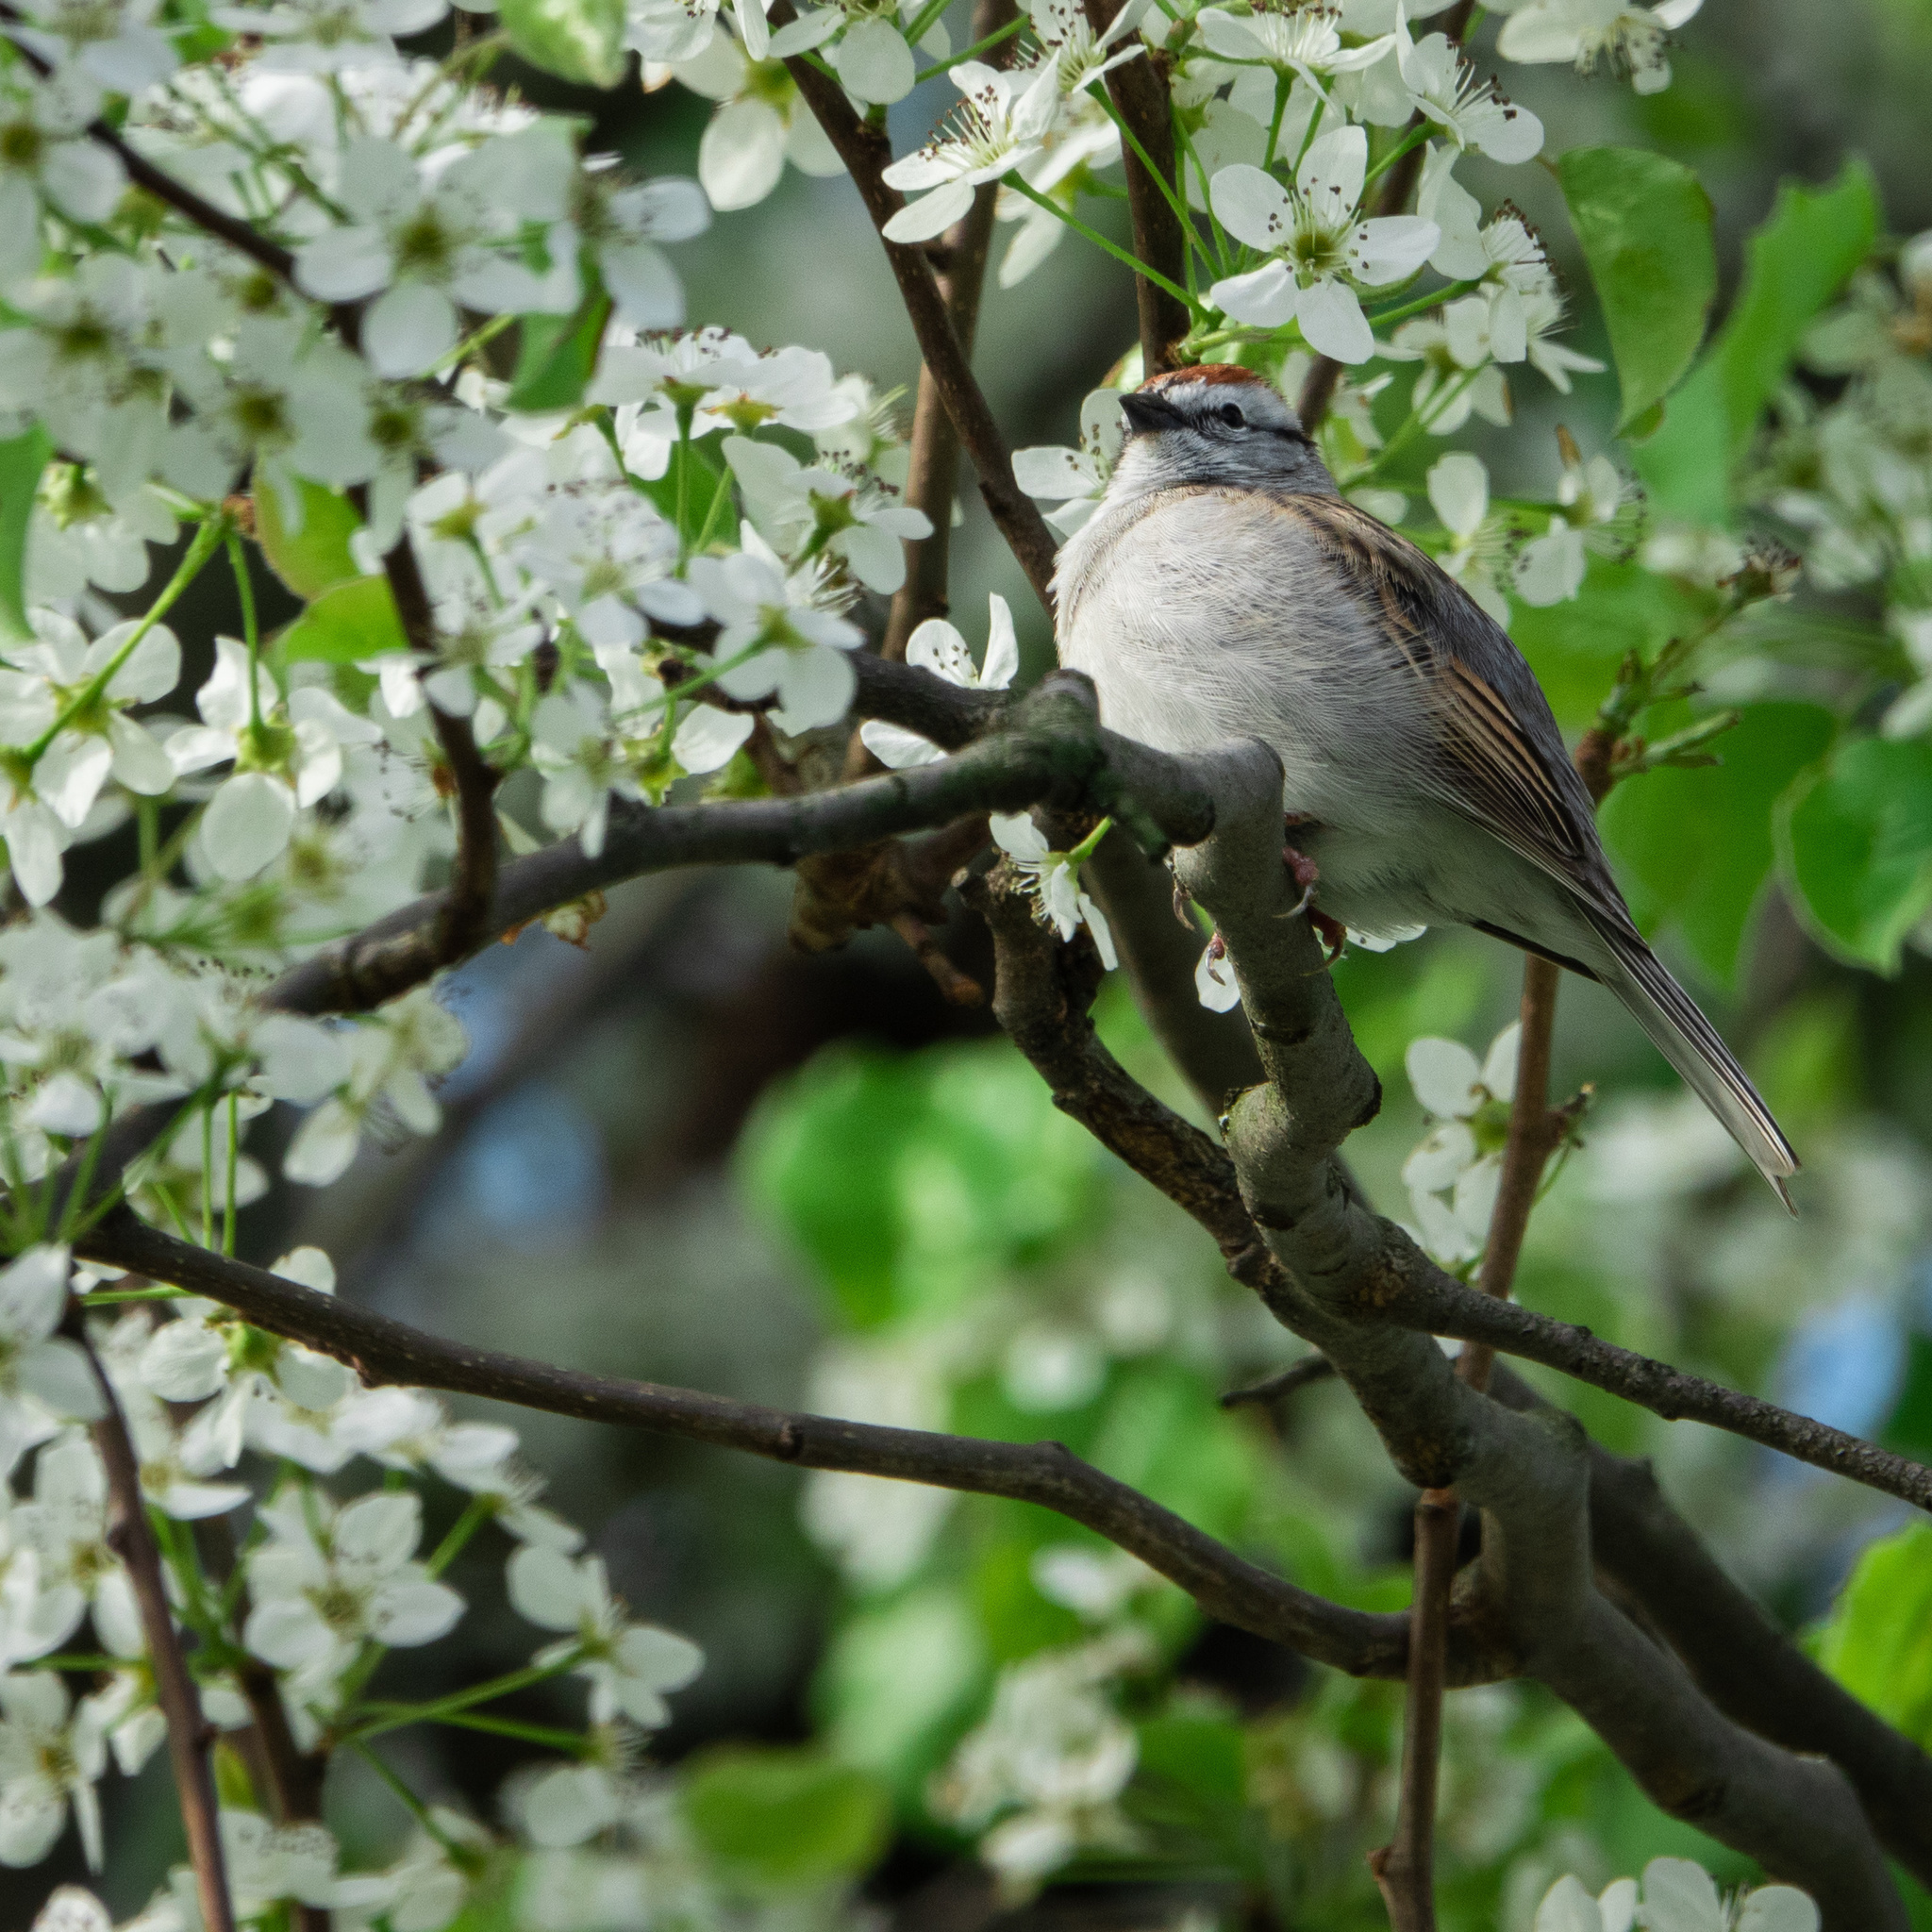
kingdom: Animalia
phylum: Chordata
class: Aves
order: Passeriformes
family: Passerellidae
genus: Spizella
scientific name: Spizella passerina
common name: Chipping sparrow
